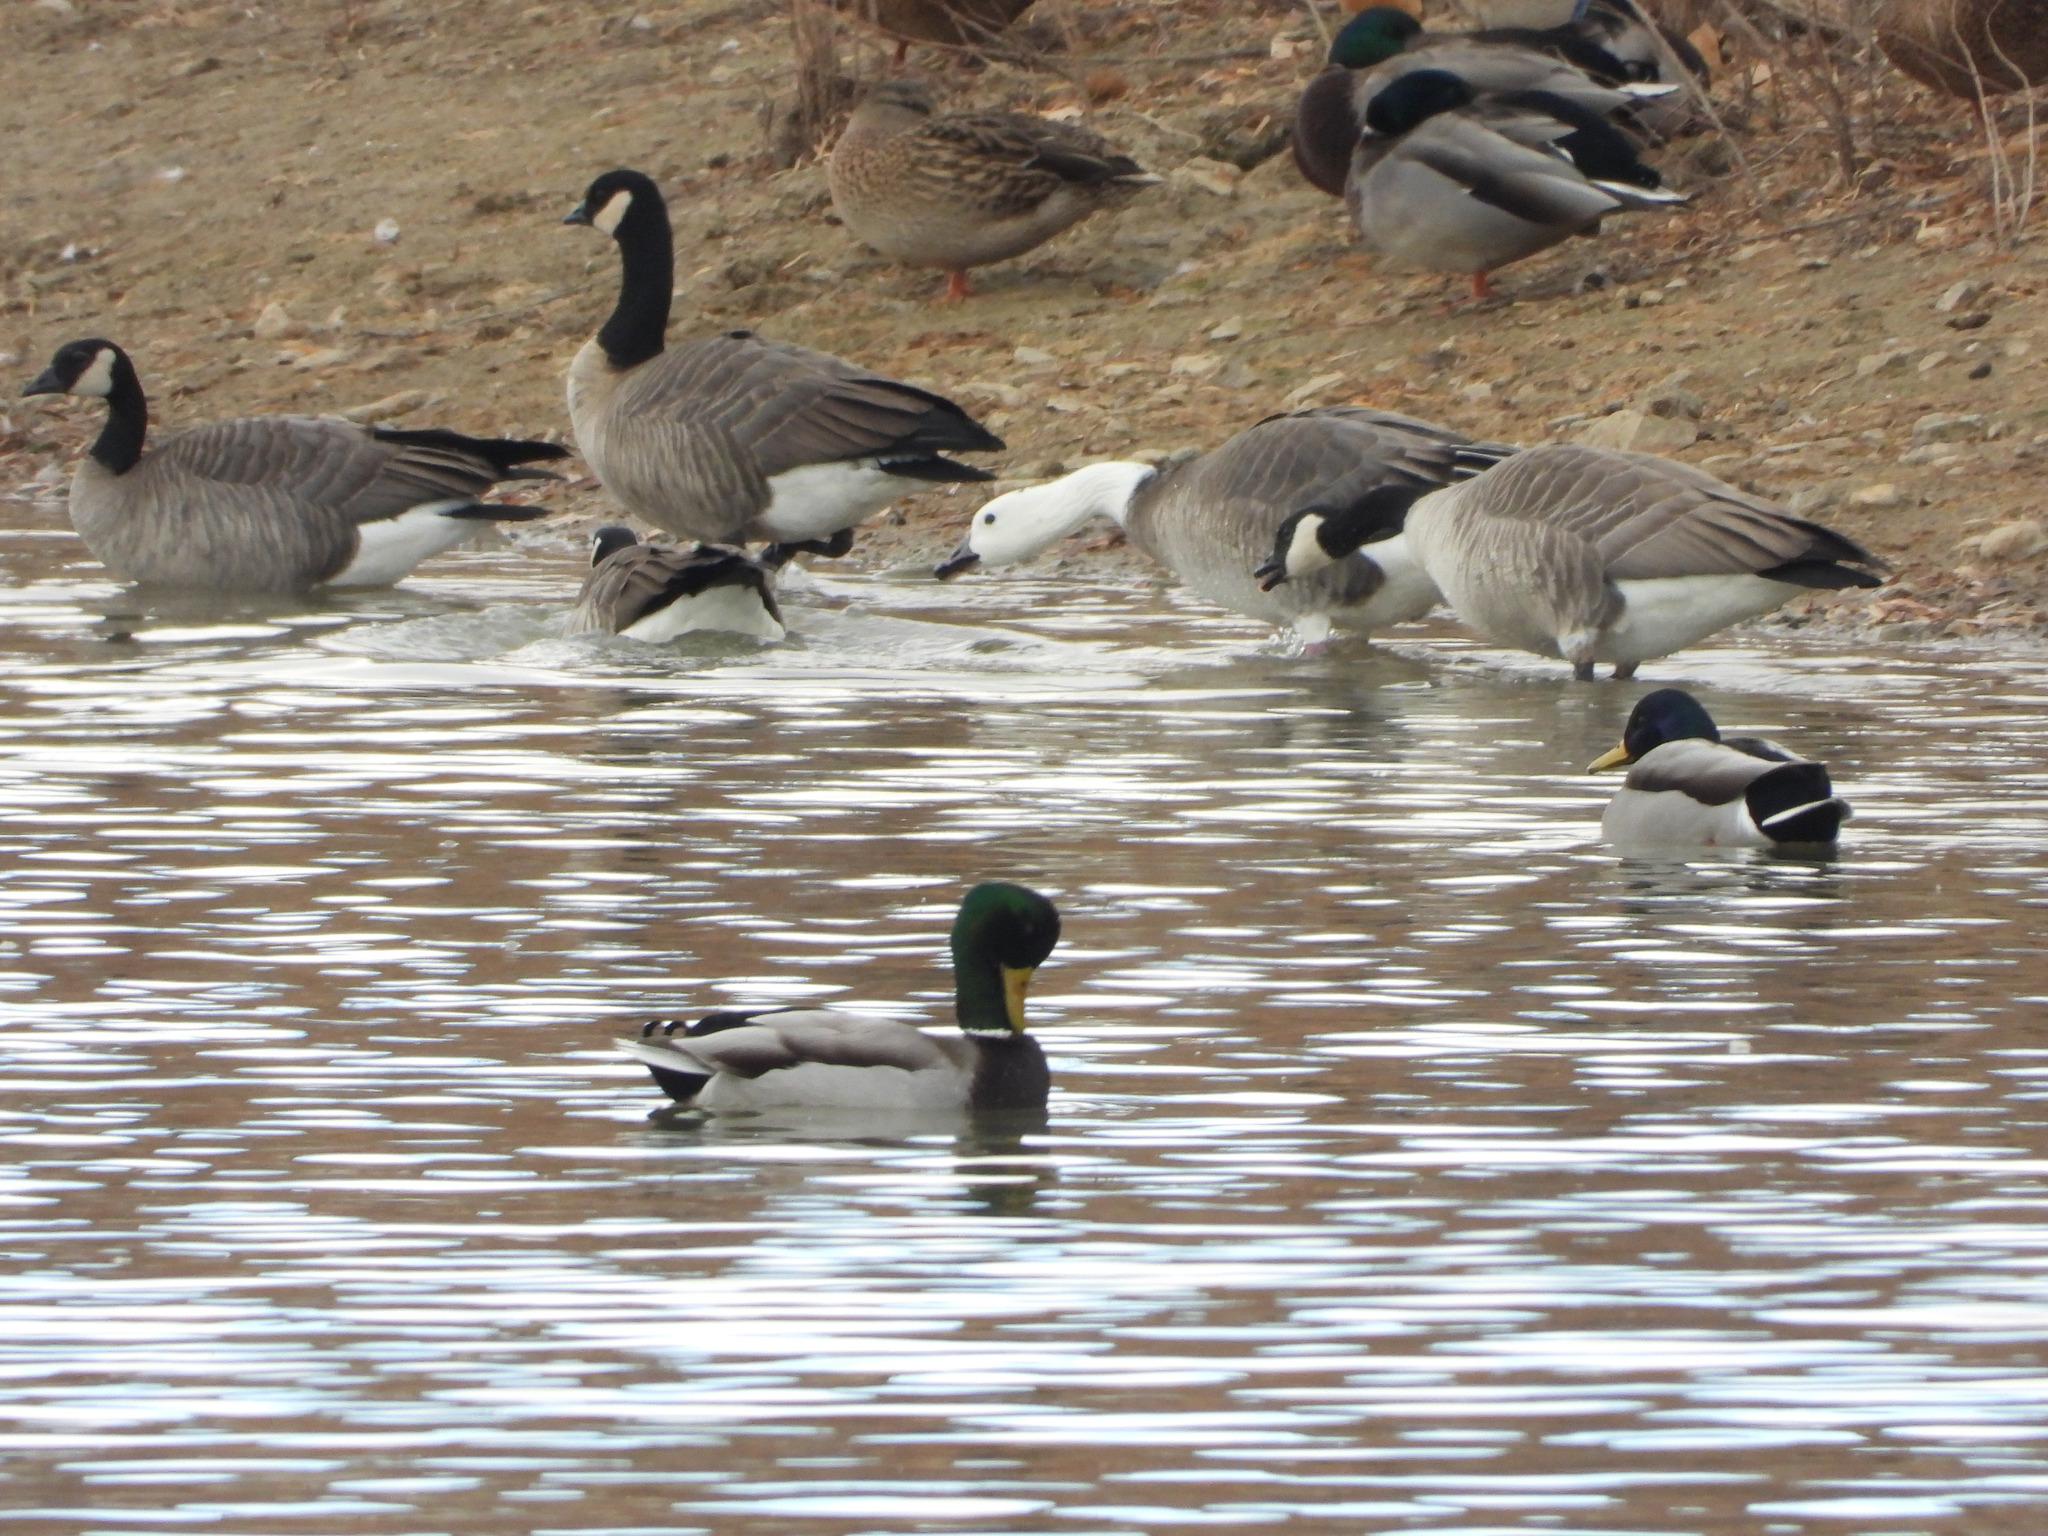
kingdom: Animalia
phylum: Chordata
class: Aves
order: Anseriformes
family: Anatidae
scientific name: Anatidae
